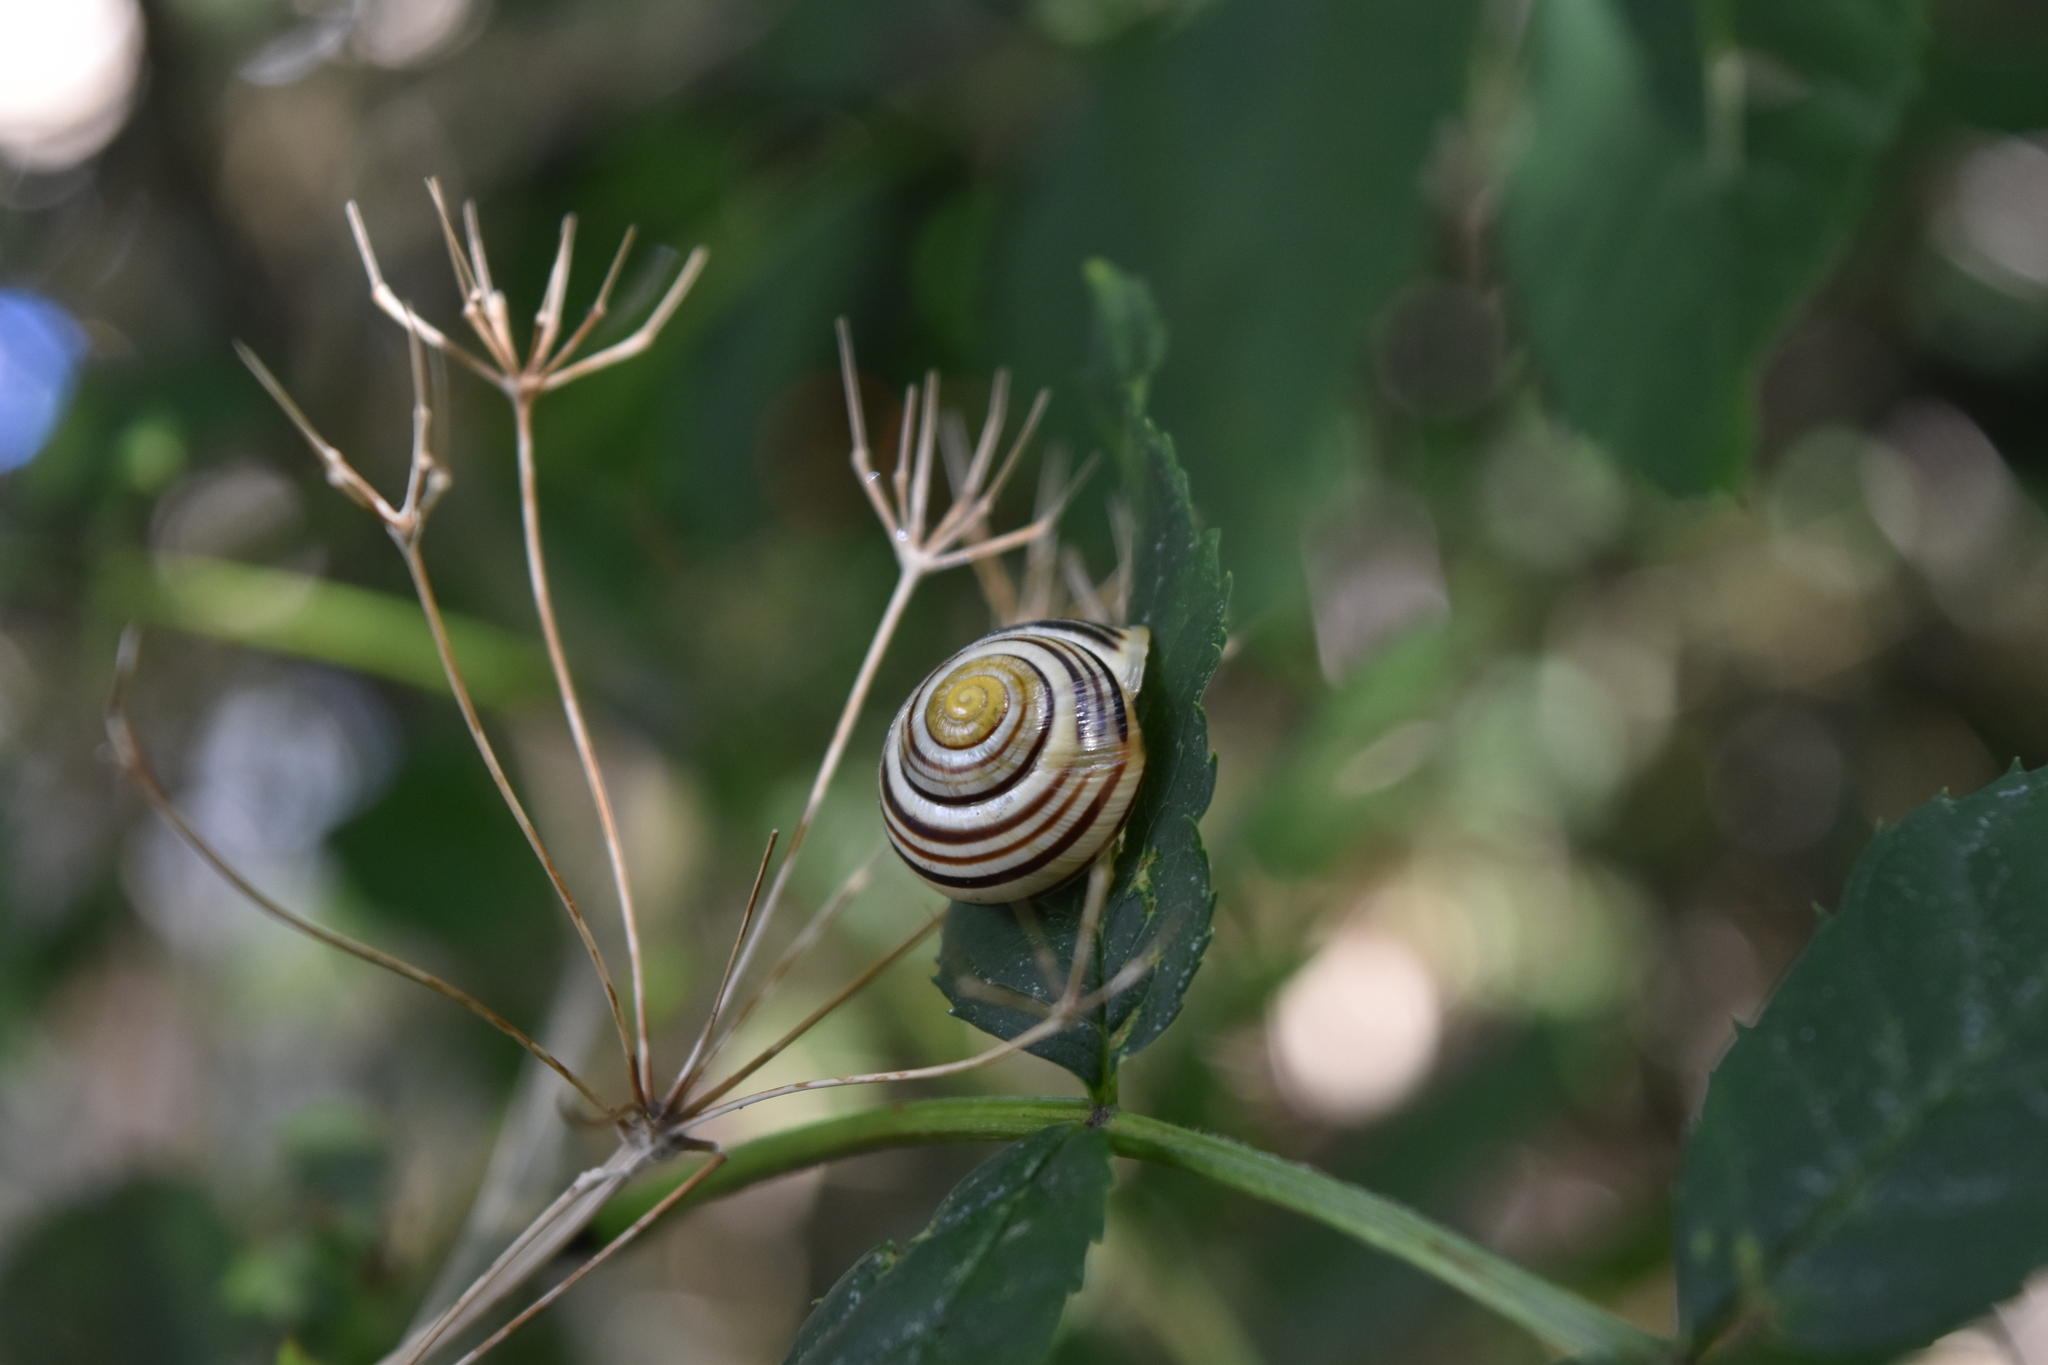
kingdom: Animalia
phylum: Mollusca
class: Gastropoda
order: Stylommatophora
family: Helicidae
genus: Cepaea
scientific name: Cepaea hortensis
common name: White-lip gardensnail
